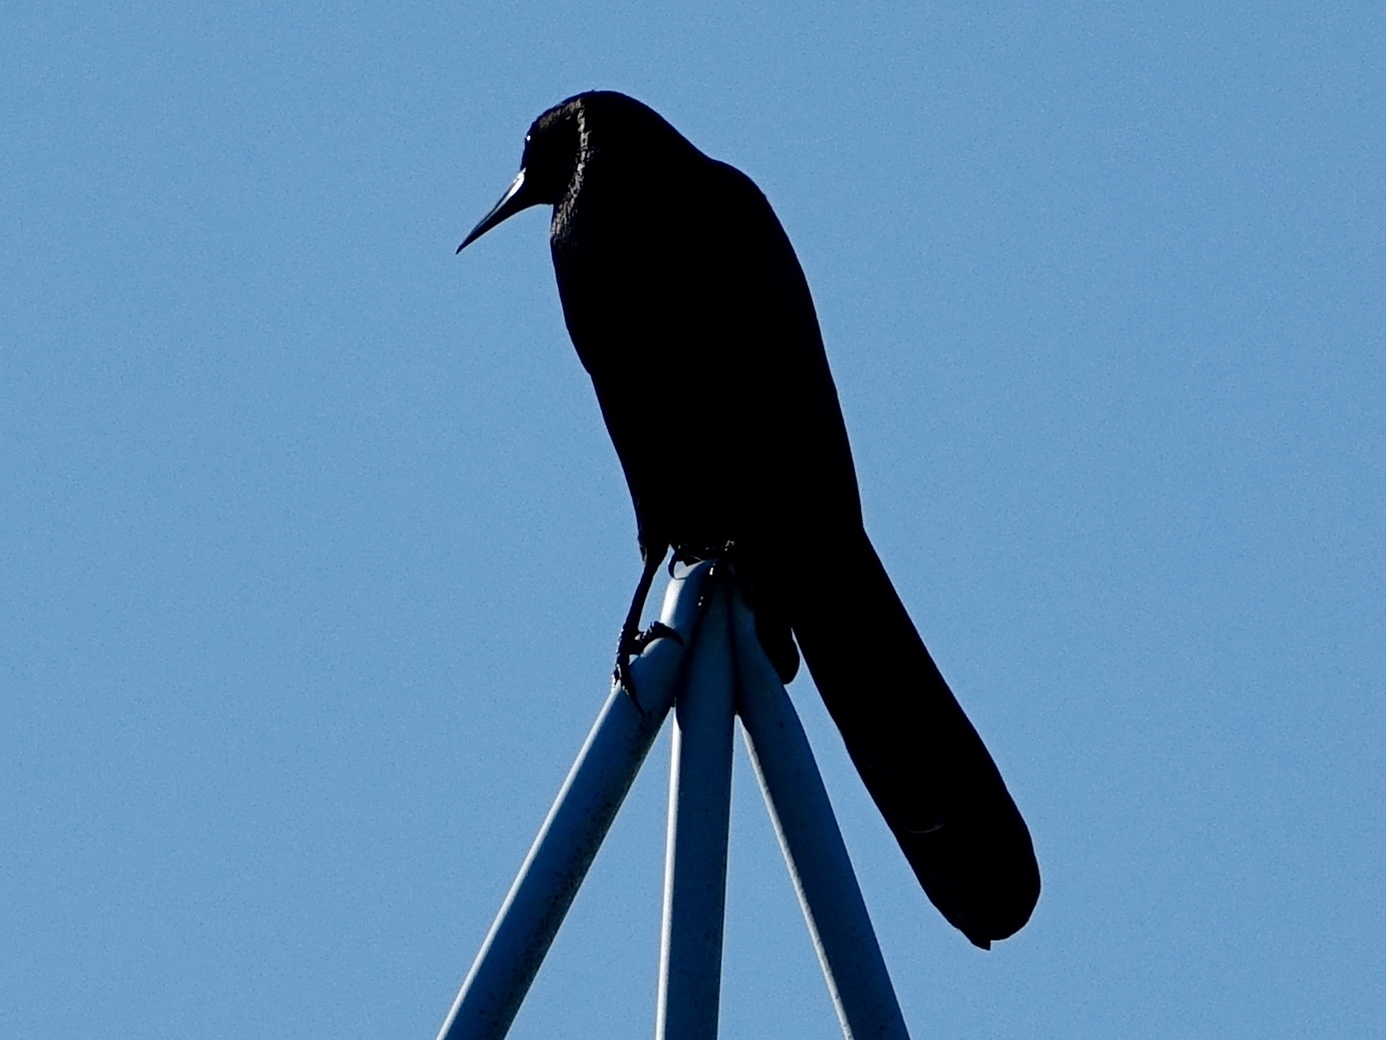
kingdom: Animalia
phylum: Chordata
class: Aves
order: Passeriformes
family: Icteridae
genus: Quiscalus
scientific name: Quiscalus major
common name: Boat-tailed grackle
